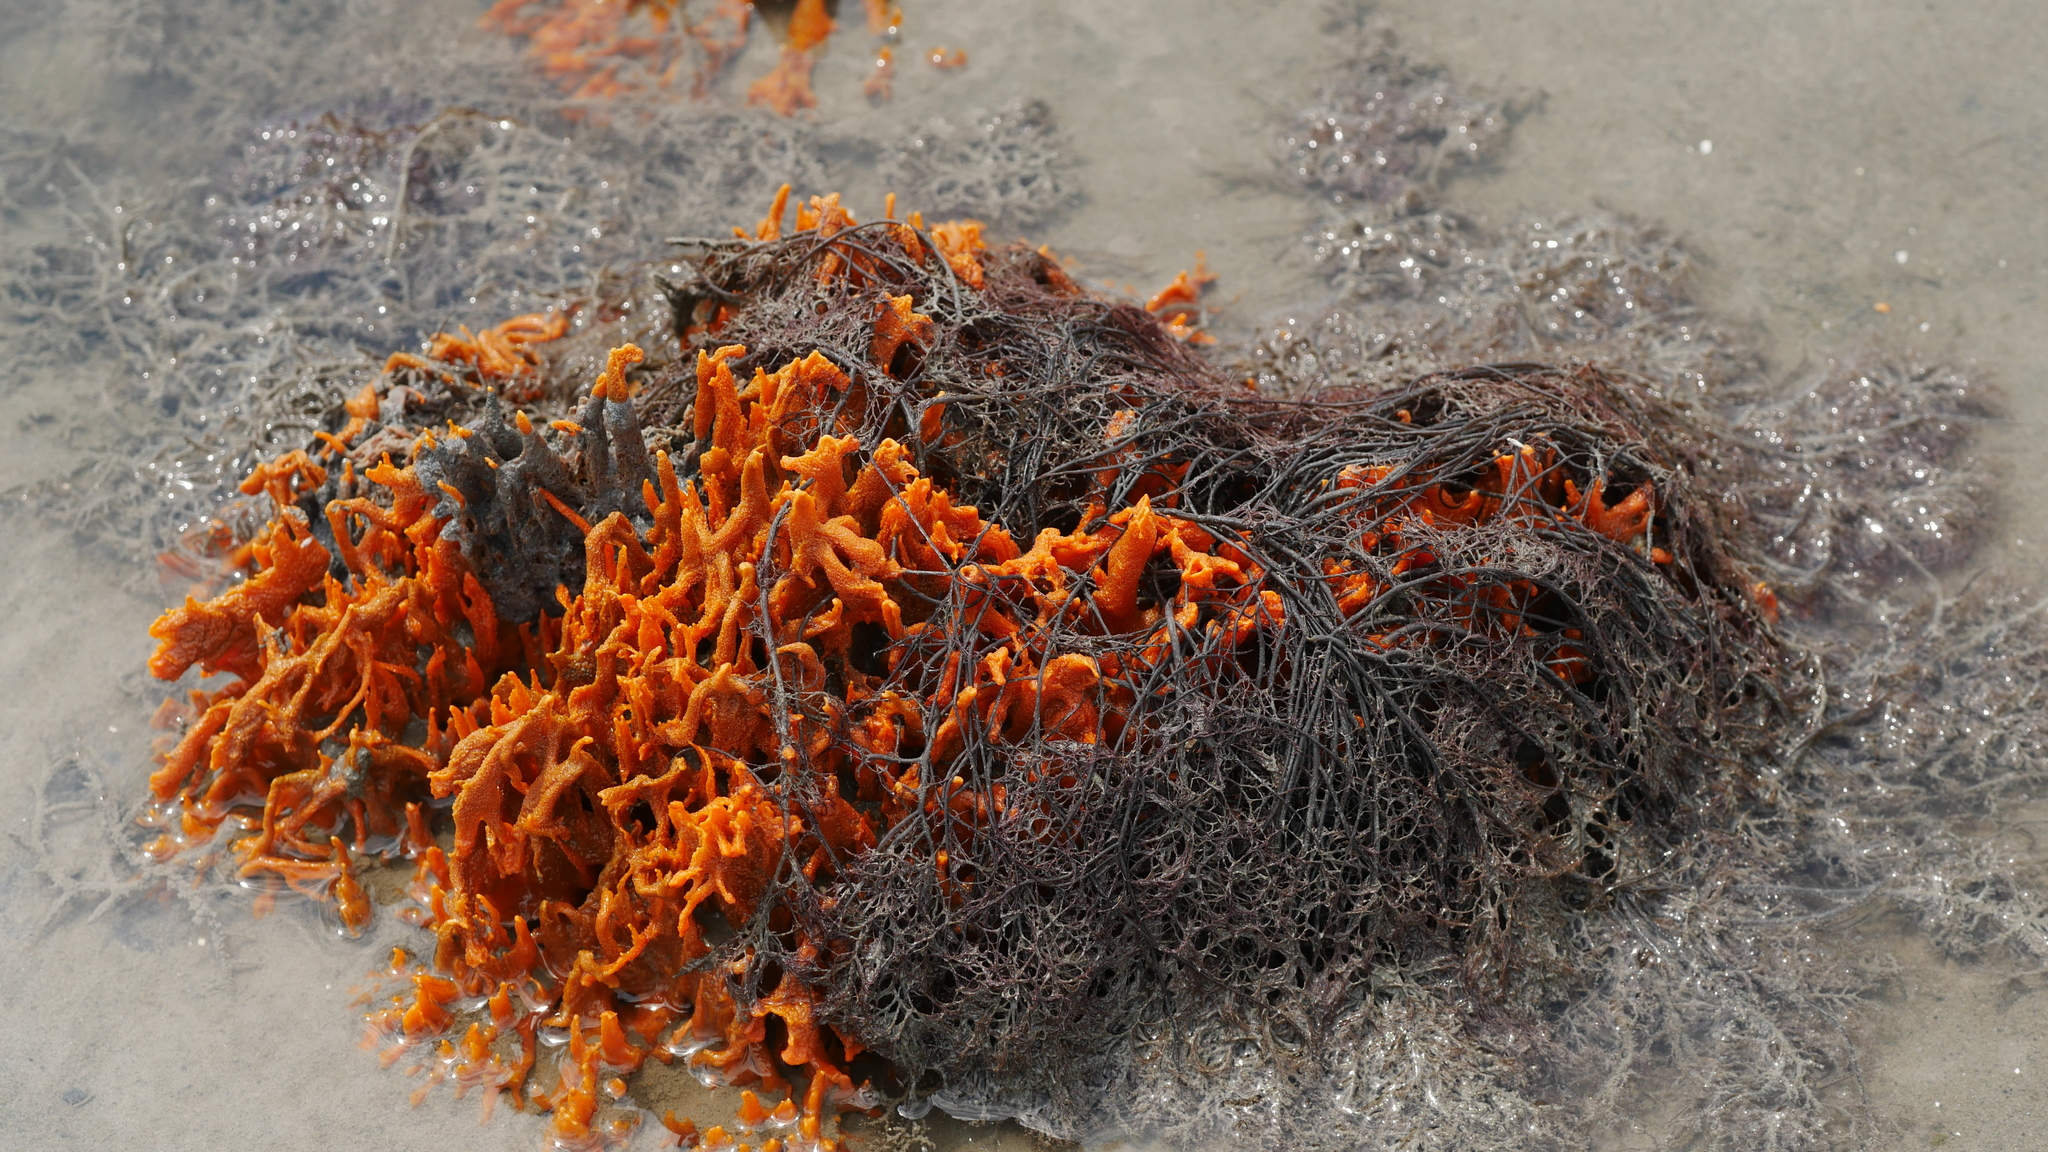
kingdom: Animalia
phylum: Porifera
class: Demospongiae
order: Suberitida
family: Halichondriidae
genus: Hymeniacidon
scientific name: Hymeniacidon heliophila
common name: Diurnal horny sponge
